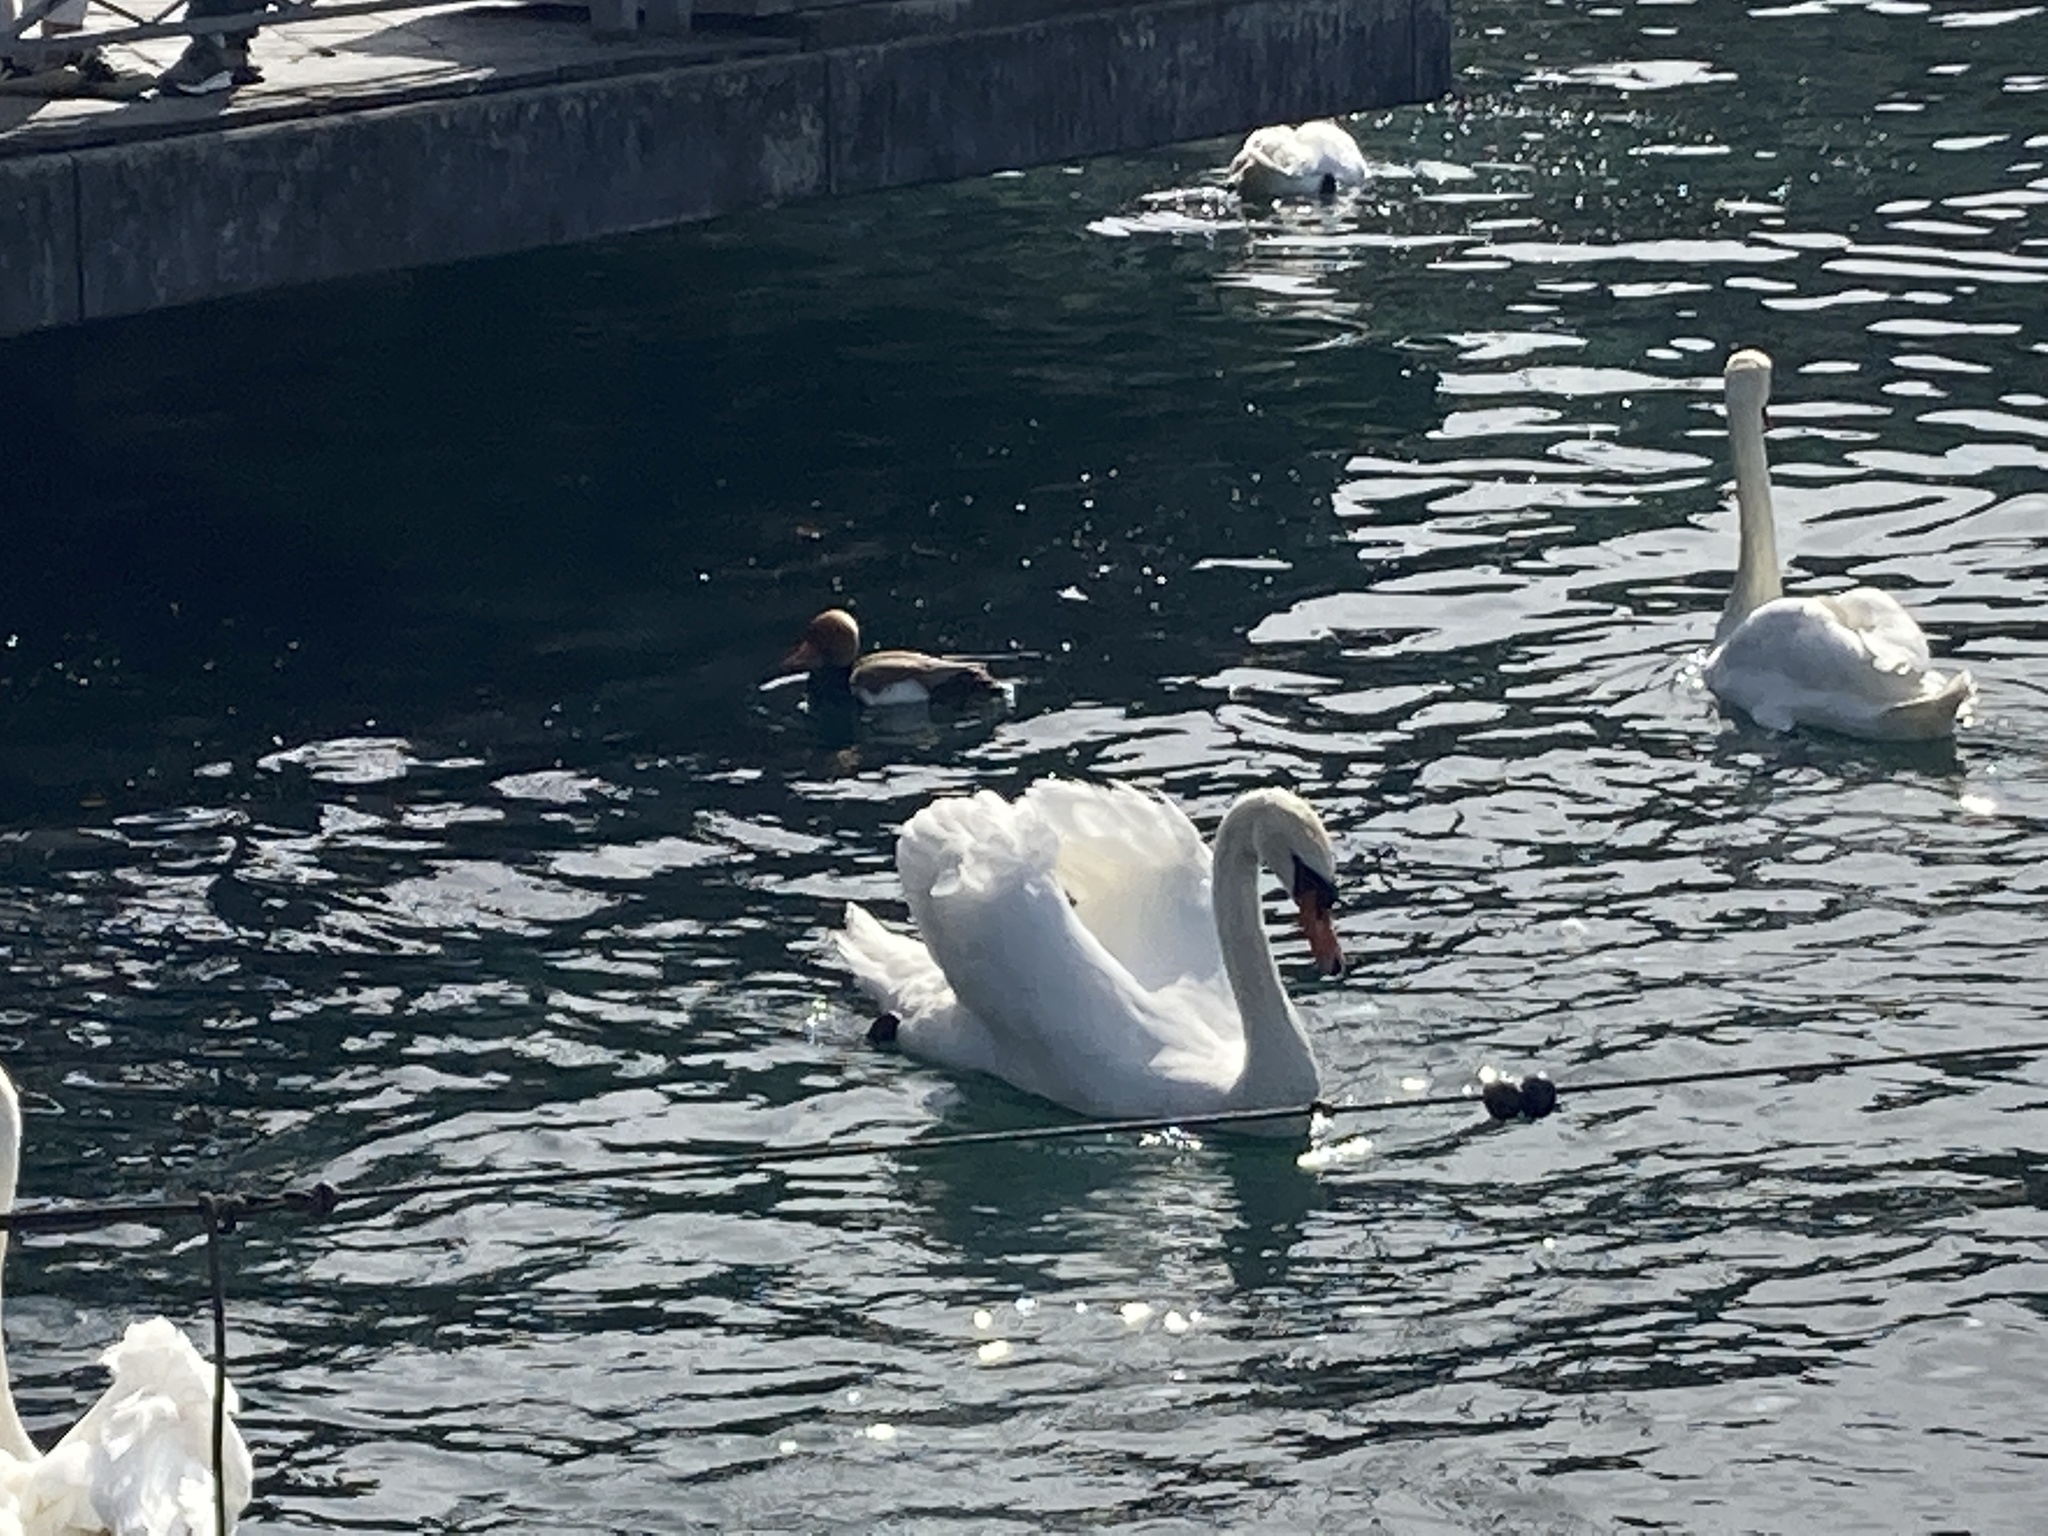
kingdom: Animalia
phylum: Chordata
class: Aves
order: Anseriformes
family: Anatidae
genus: Cygnus
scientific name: Cygnus olor
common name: Mute swan
